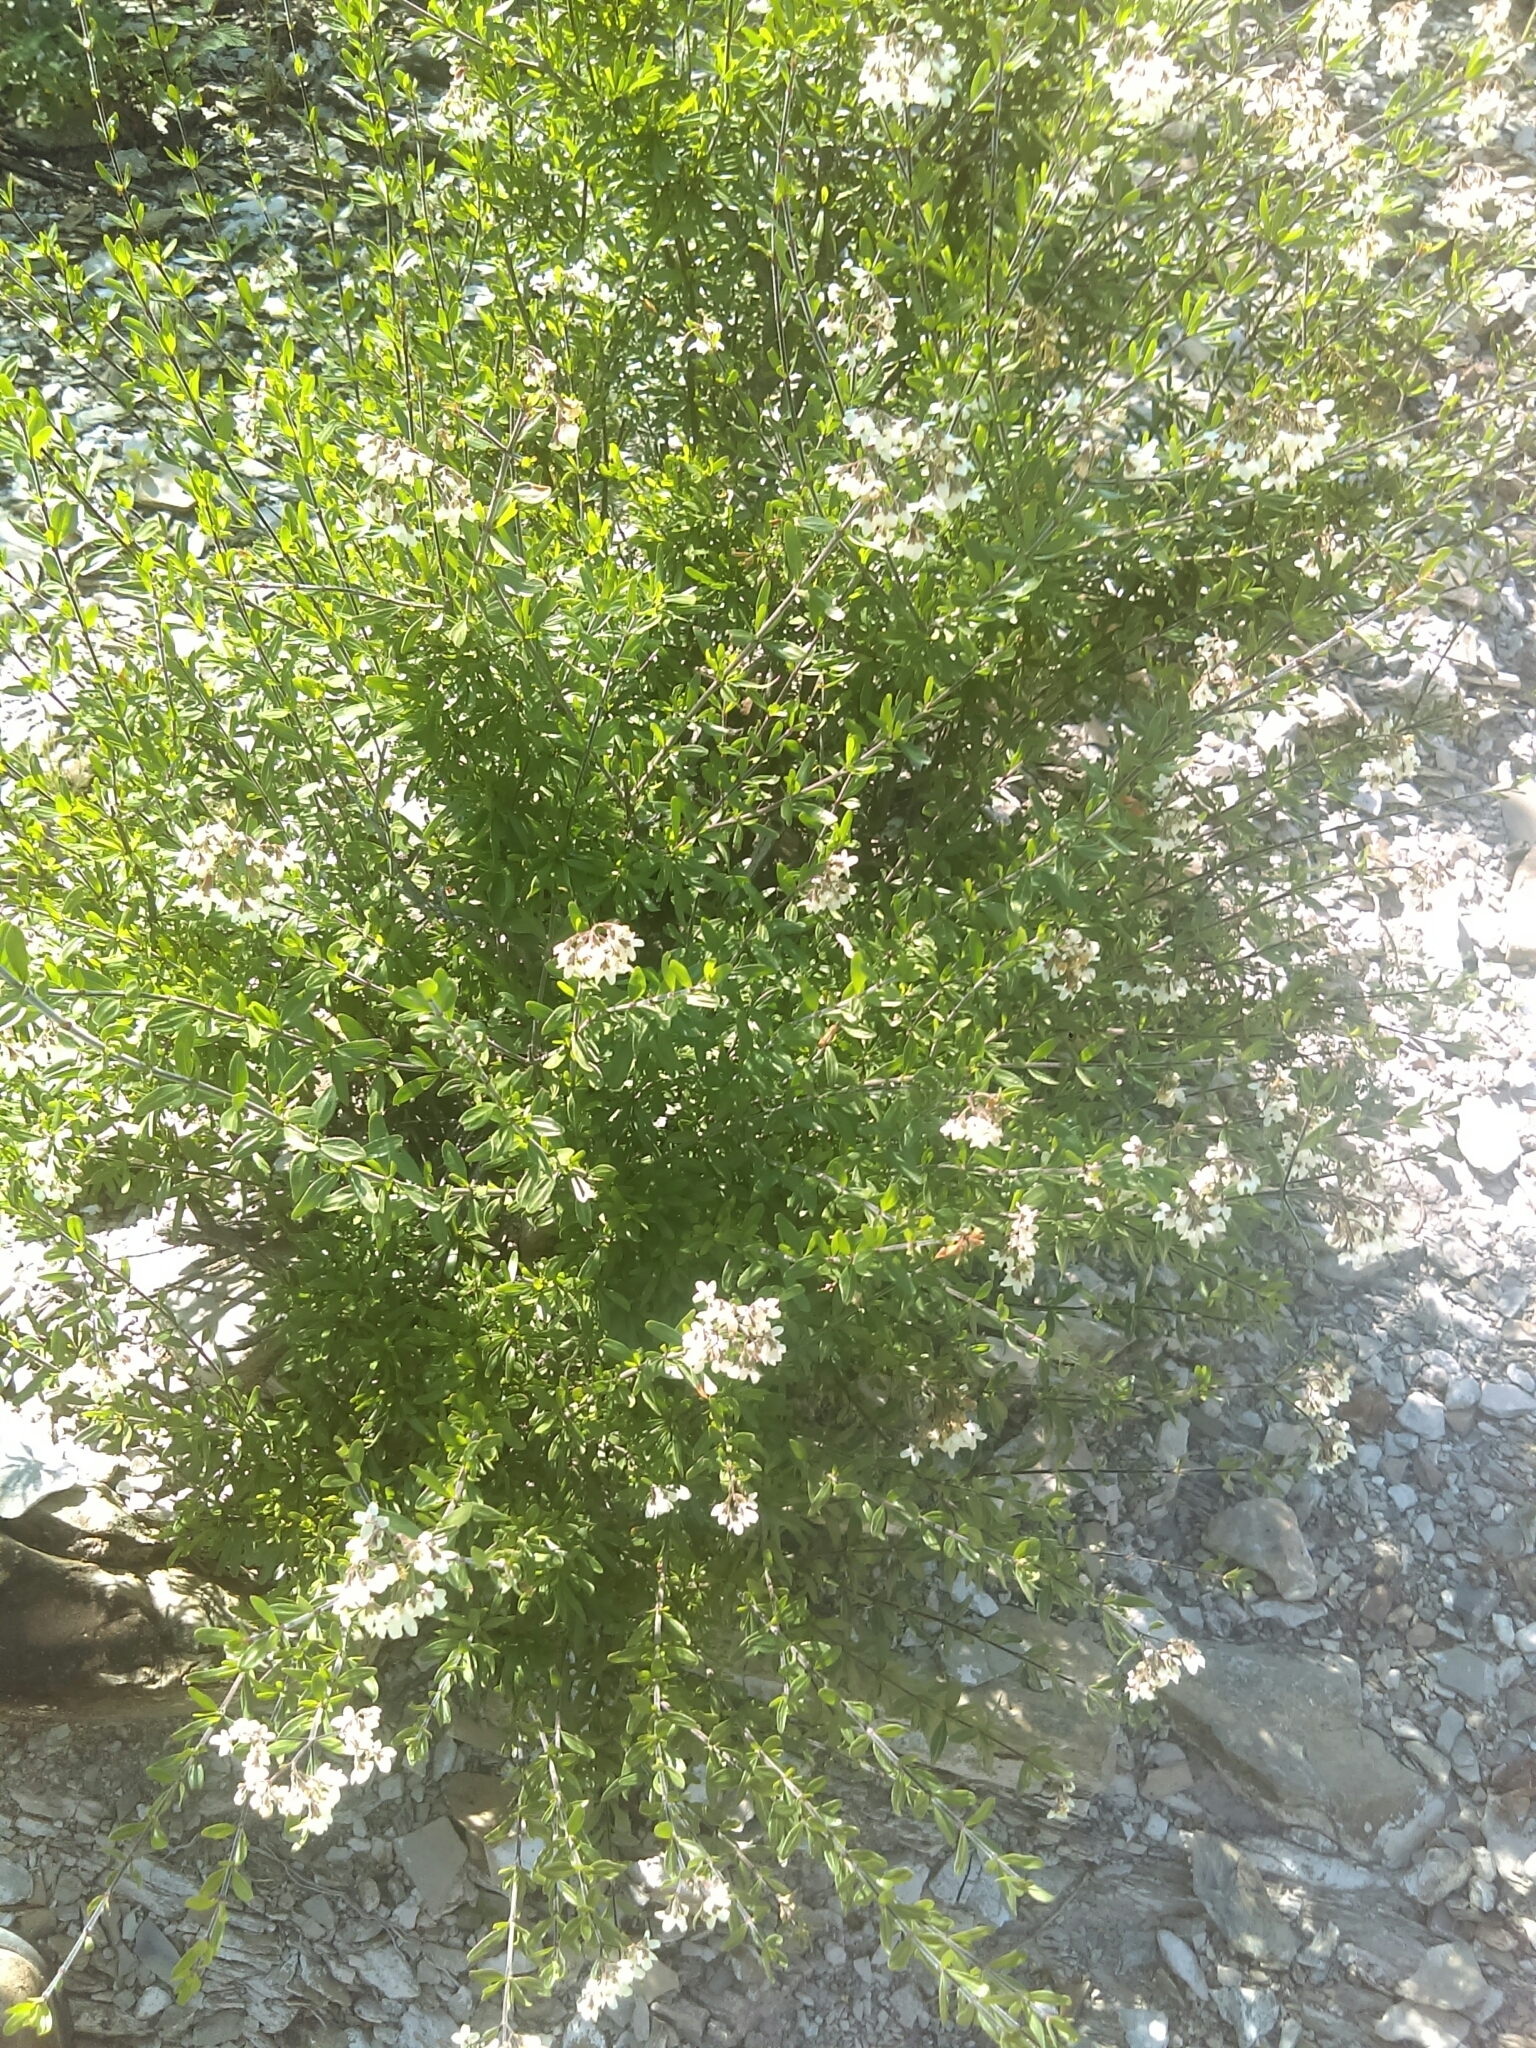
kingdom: Plantae
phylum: Tracheophyta
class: Magnoliopsida
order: Gentianales
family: Rubiaceae
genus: Machaonia
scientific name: Machaonia coulteri
